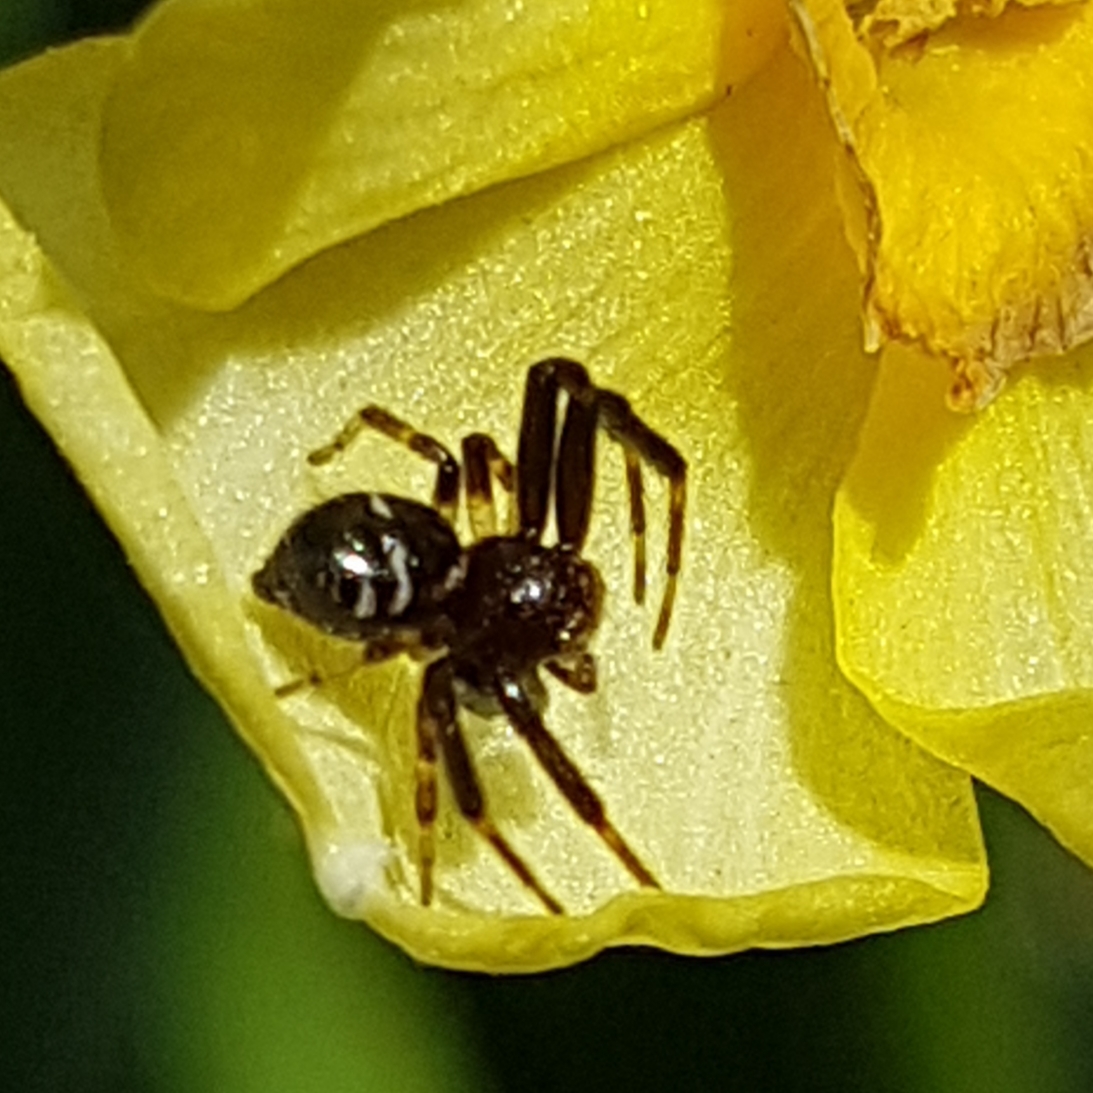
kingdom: Animalia
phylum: Arthropoda
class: Arachnida
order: Araneae
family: Thomisidae
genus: Synema
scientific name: Synema globosum
